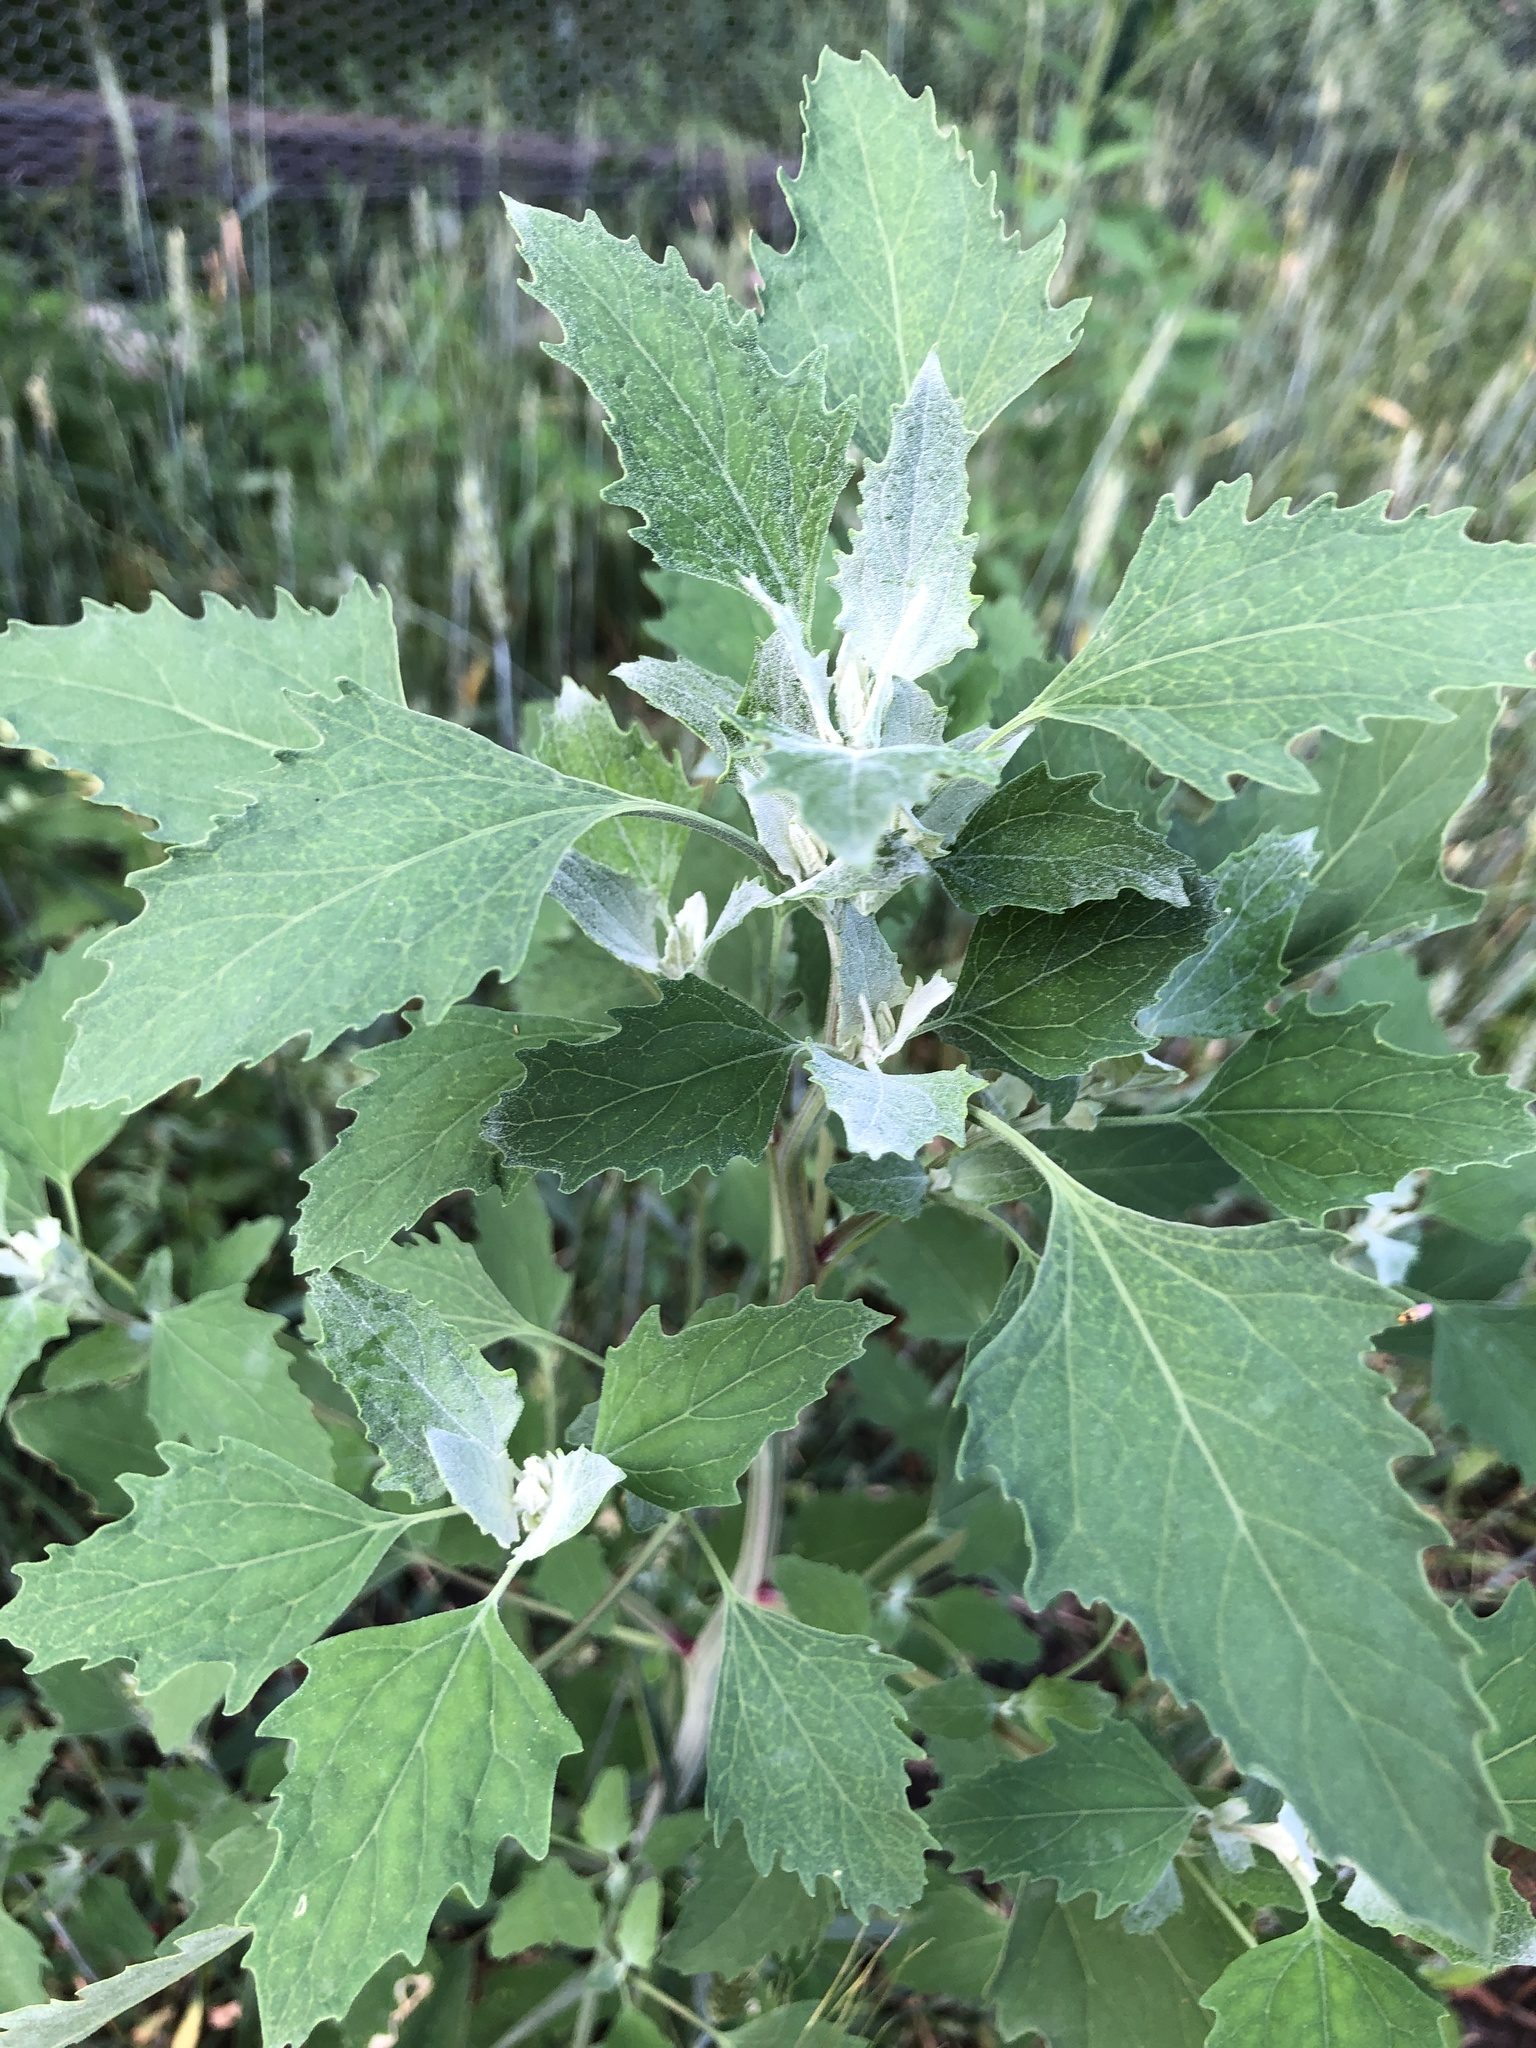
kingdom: Plantae
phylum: Tracheophyta
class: Magnoliopsida
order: Caryophyllales
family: Amaranthaceae
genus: Chenopodium
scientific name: Chenopodium album
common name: Fat-hen
